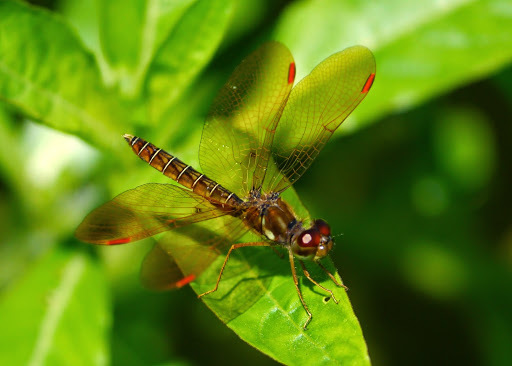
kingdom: Animalia
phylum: Arthropoda
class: Insecta
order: Odonata
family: Libellulidae
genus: Perithemis
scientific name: Perithemis tenera
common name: Eastern amberwing
